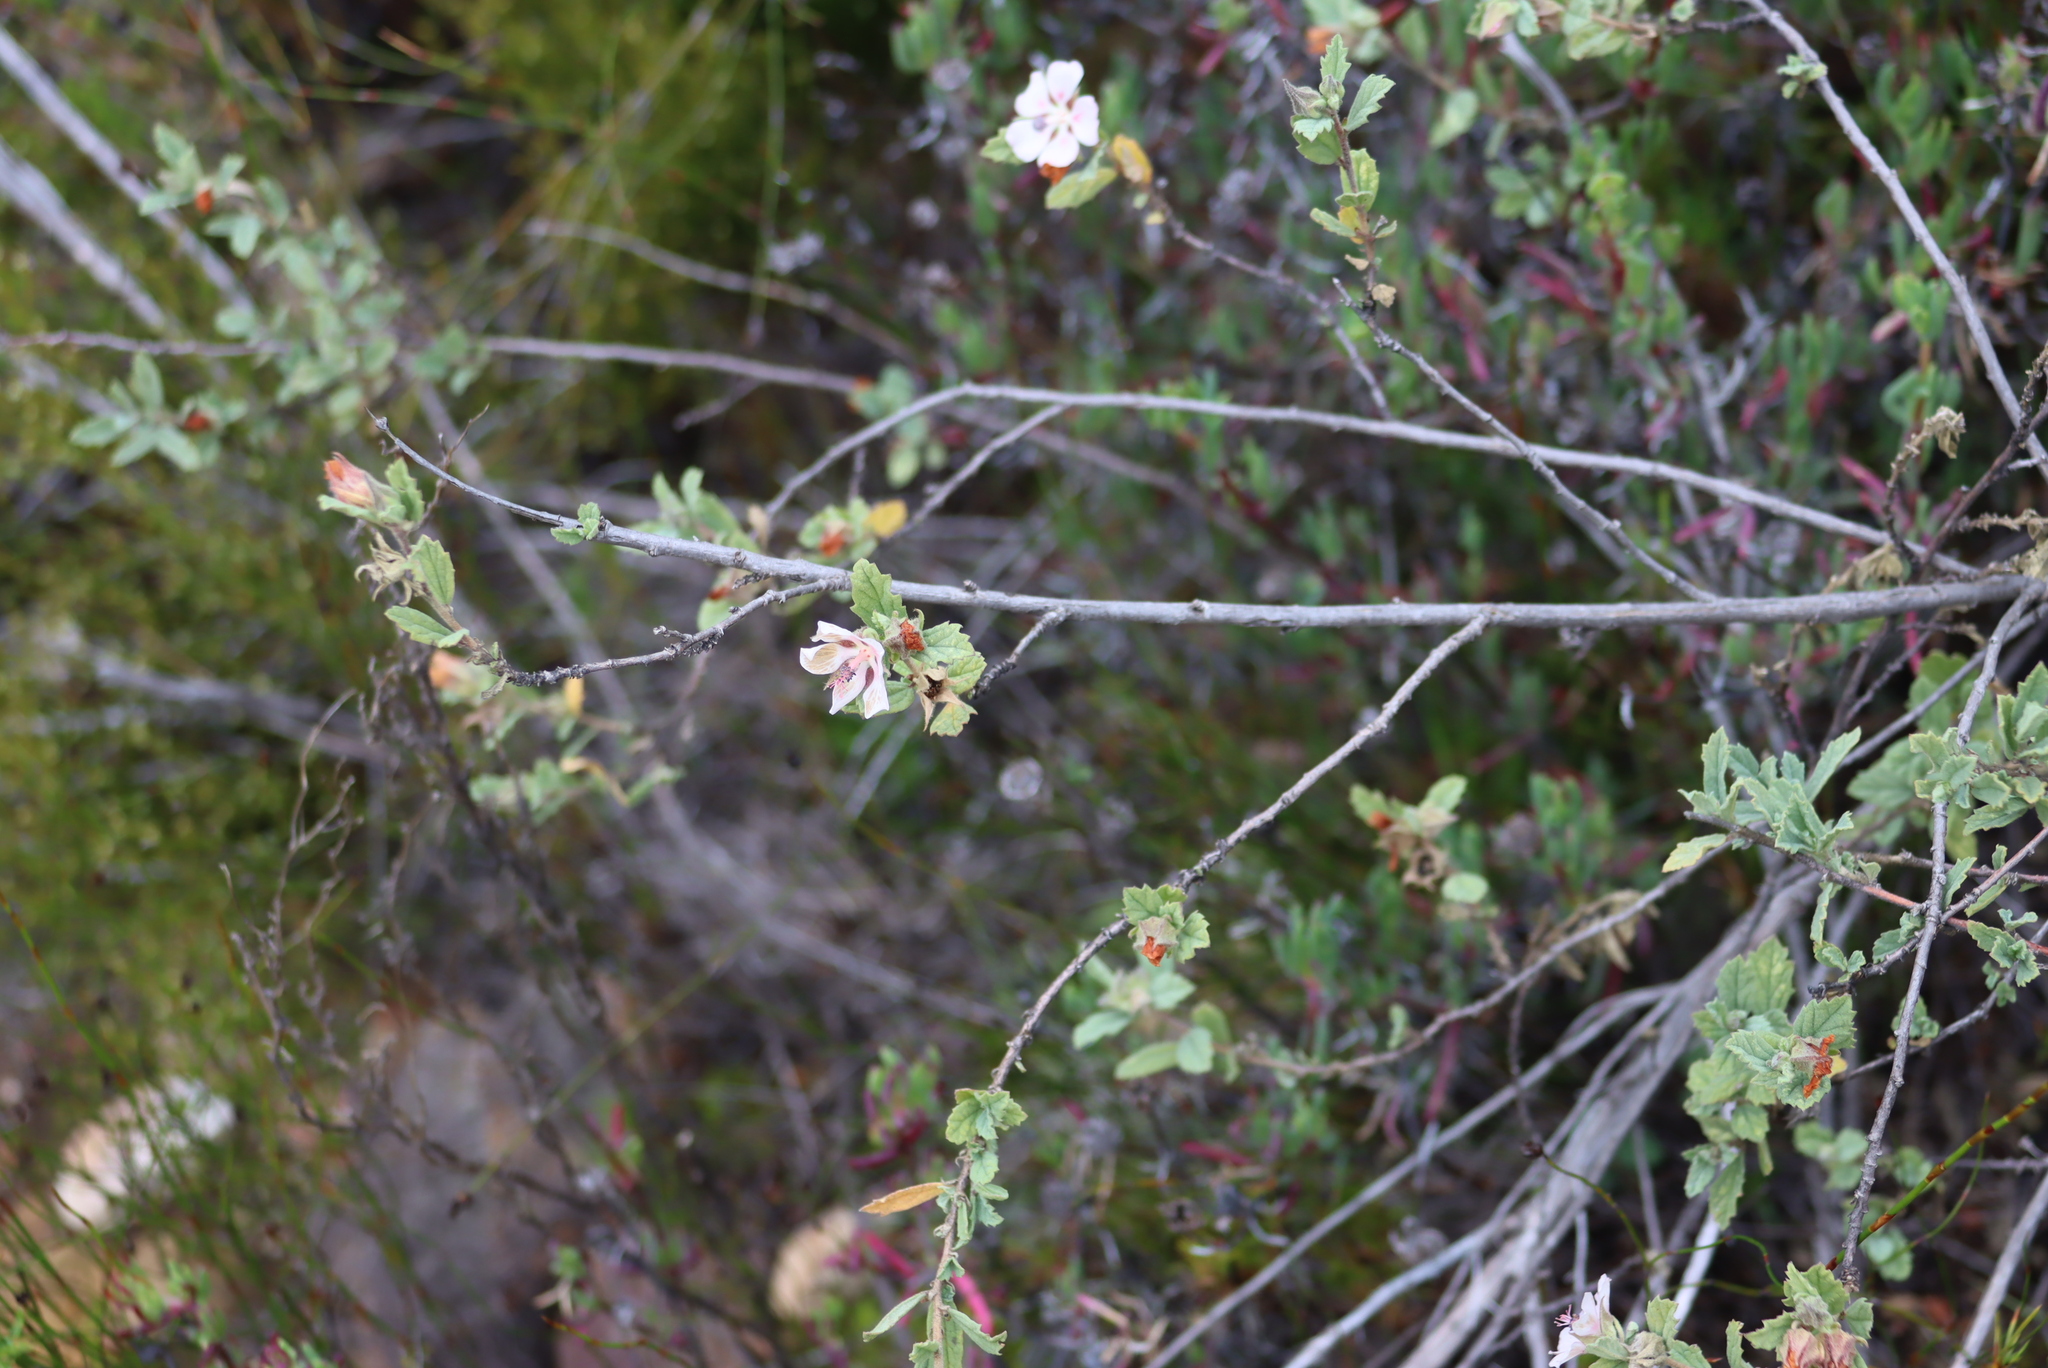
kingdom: Plantae
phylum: Tracheophyta
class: Magnoliopsida
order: Malvales
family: Malvaceae
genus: Anisodontea
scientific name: Anisodontea scabrosa
